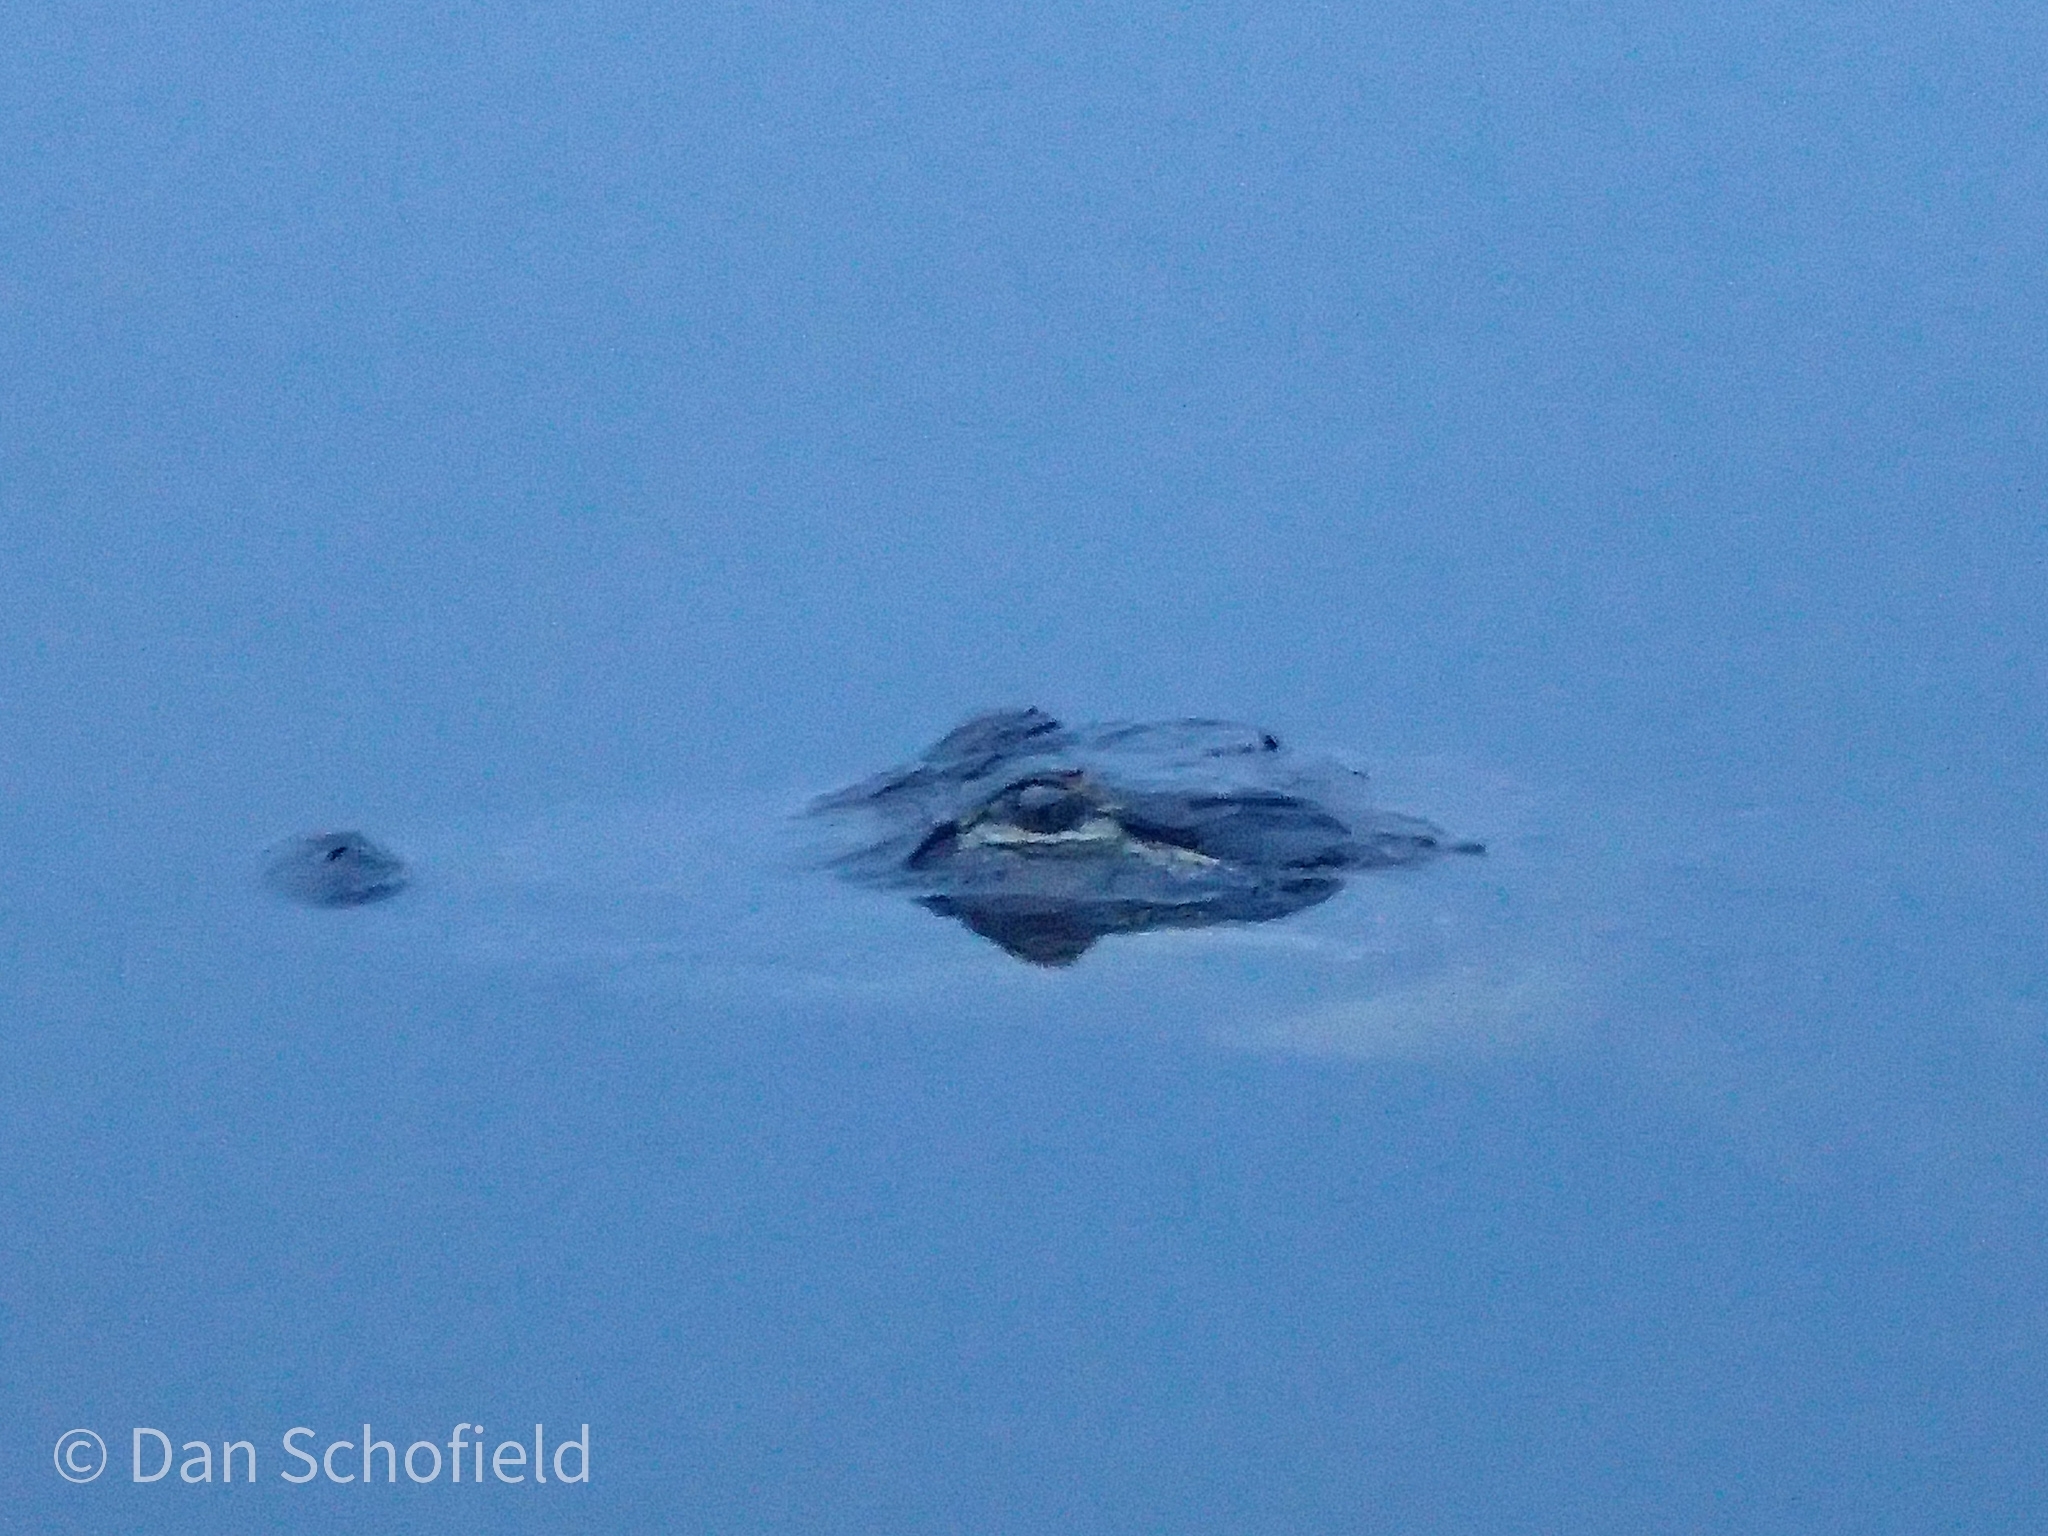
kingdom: Animalia
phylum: Chordata
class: Crocodylia
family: Alligatoridae
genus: Alligator
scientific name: Alligator mississippiensis
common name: American alligator
